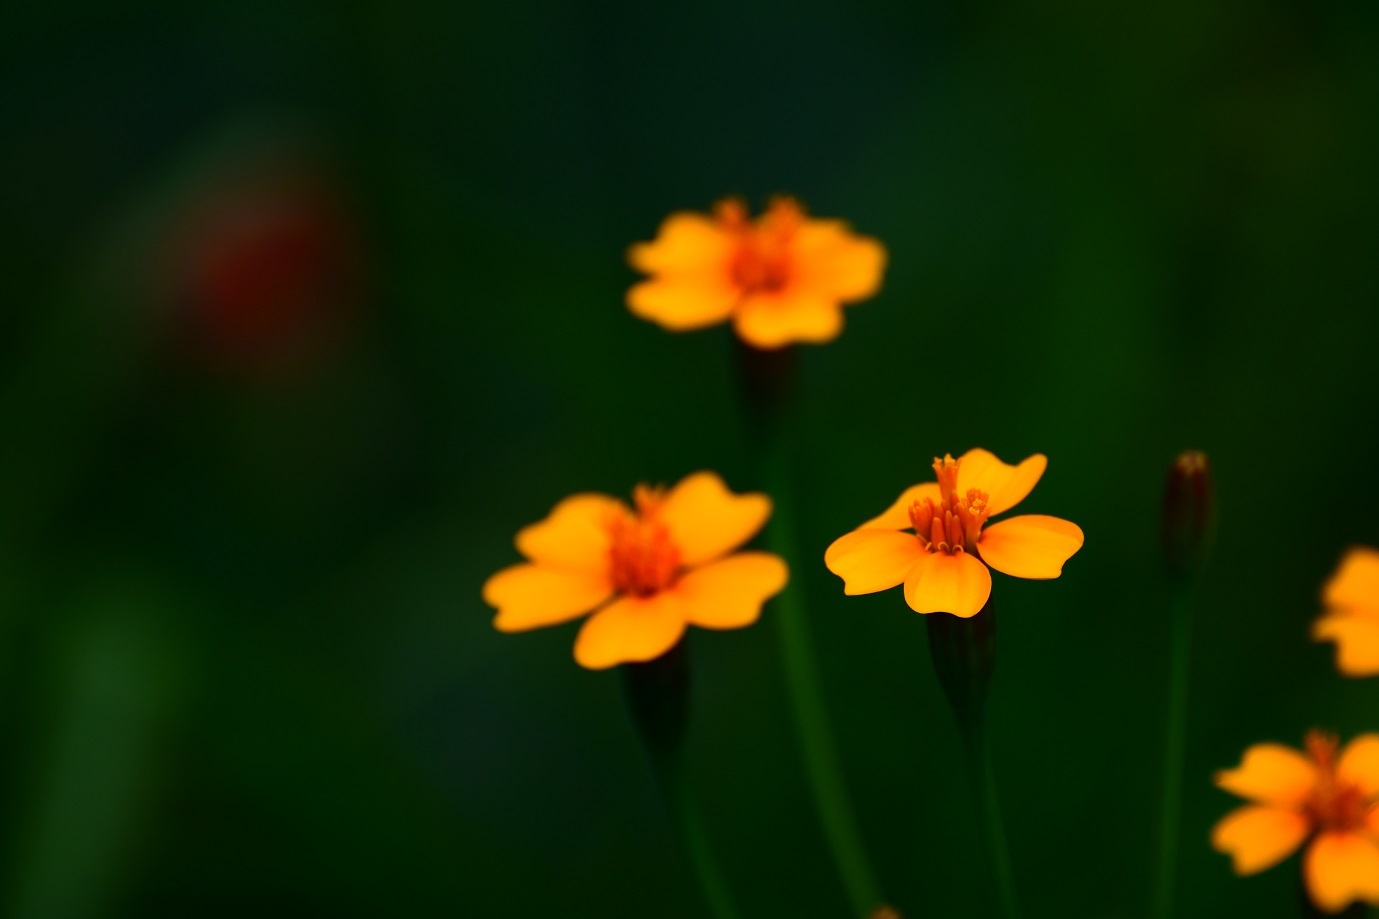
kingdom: Plantae
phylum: Tracheophyta
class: Magnoliopsida
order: Asterales
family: Asteraceae
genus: Tagetes
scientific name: Tagetes tenuifolia
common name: Signet marigold
